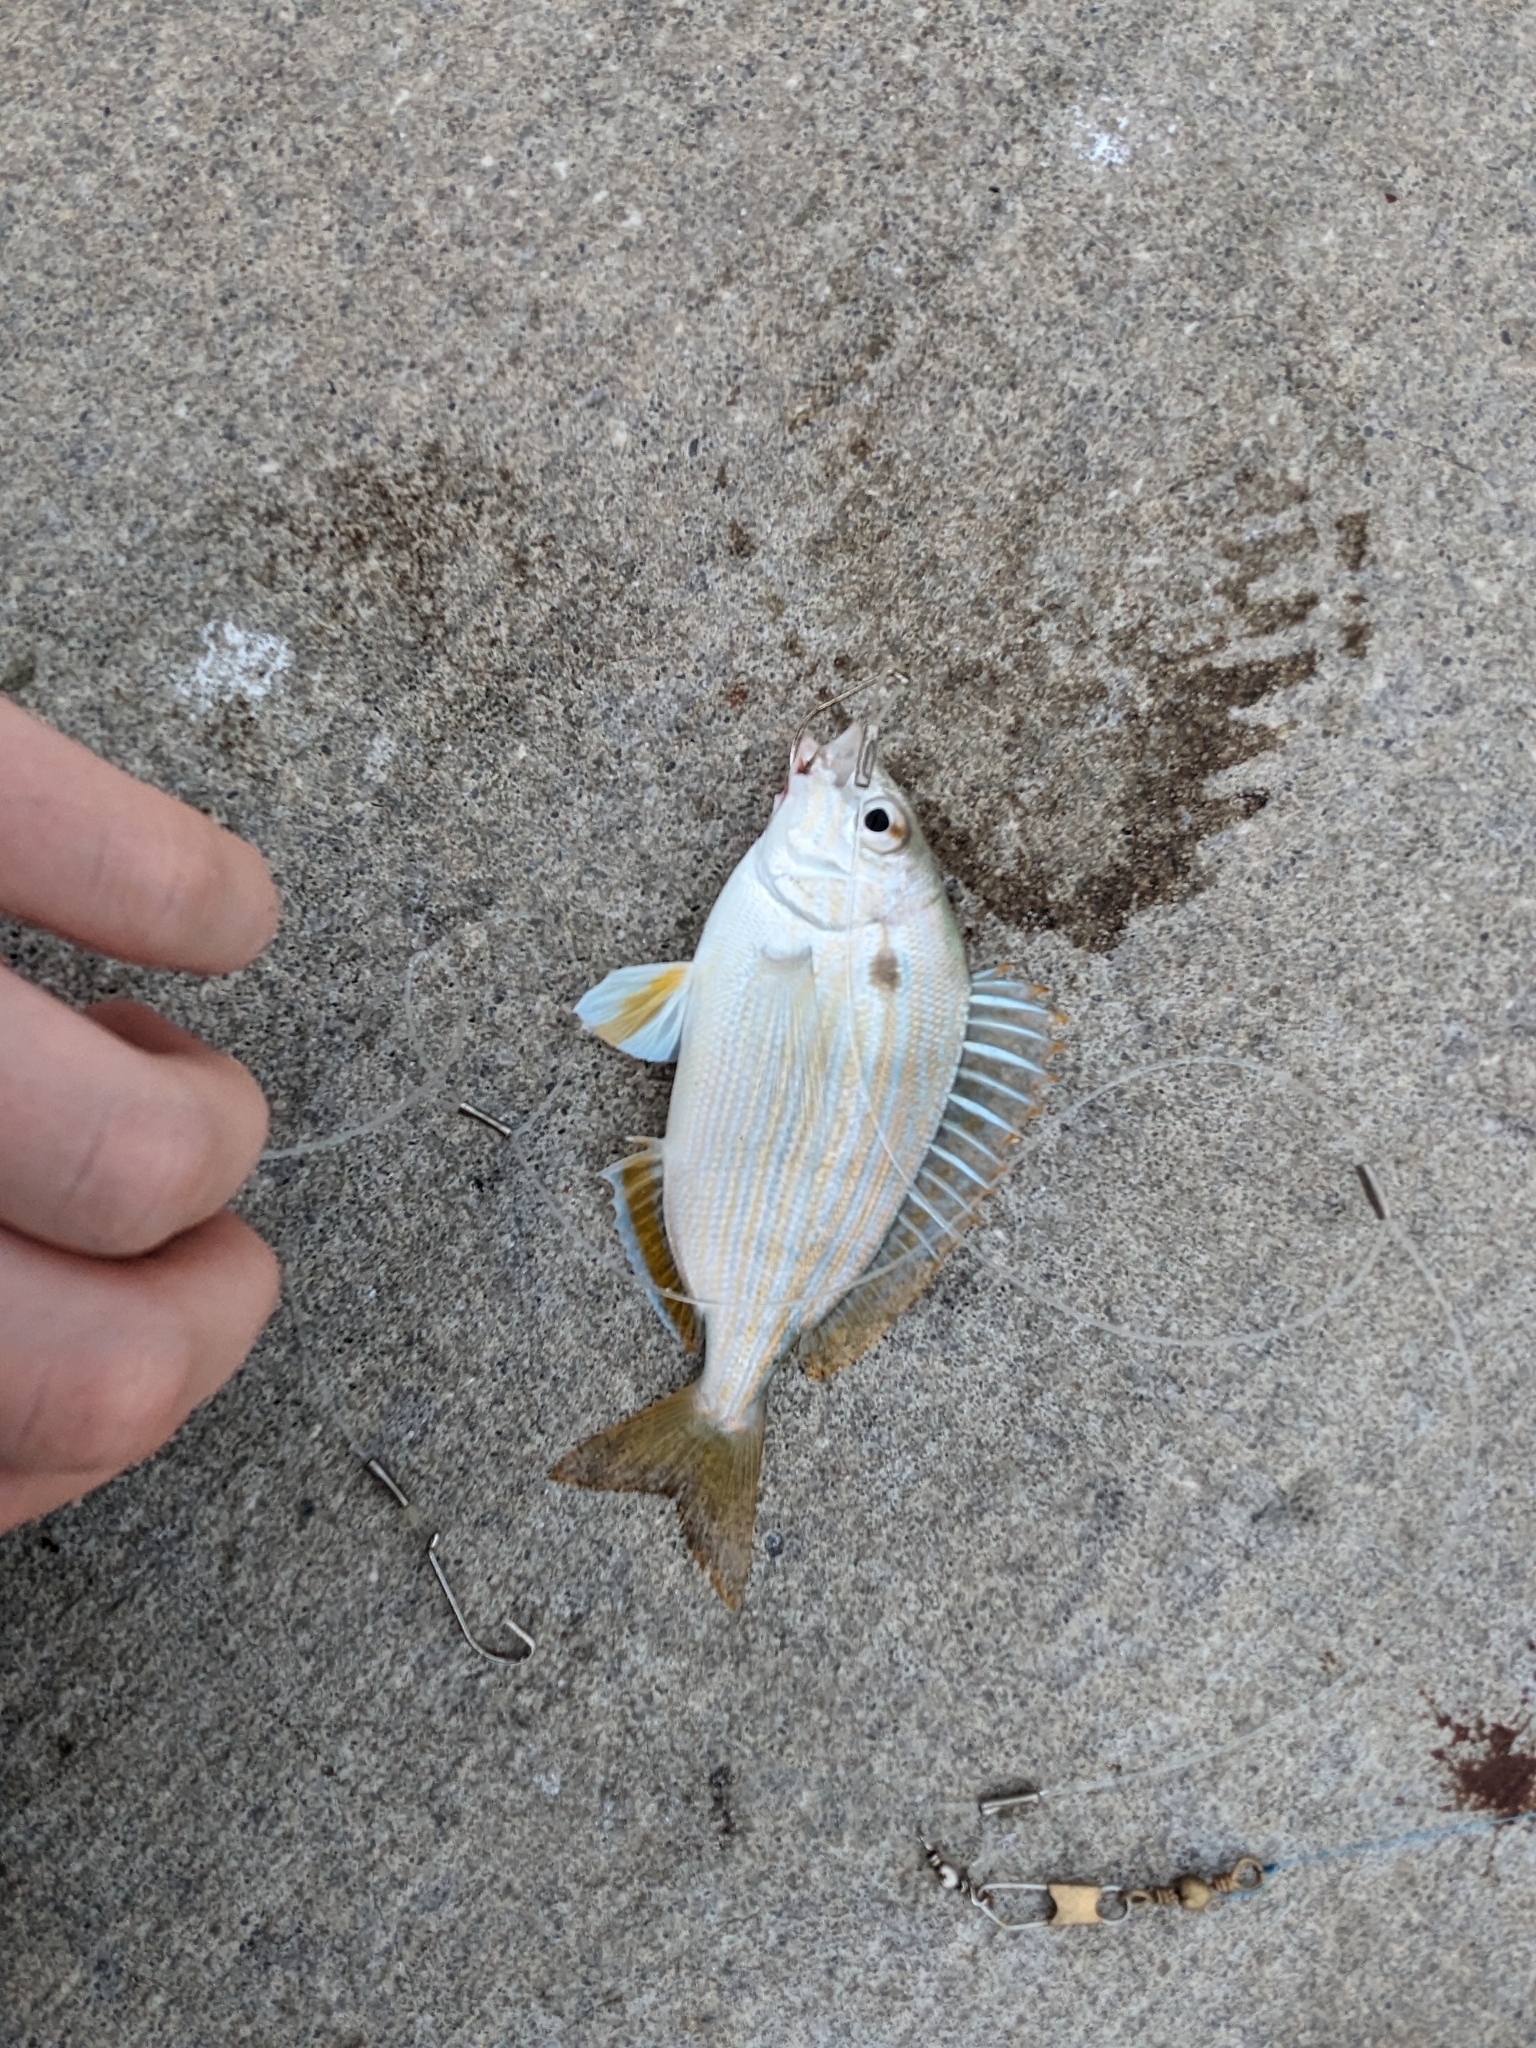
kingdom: Animalia
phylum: Chordata
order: Perciformes
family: Sparidae
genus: Lagodon
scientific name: Lagodon rhomboides
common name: Pinfish
